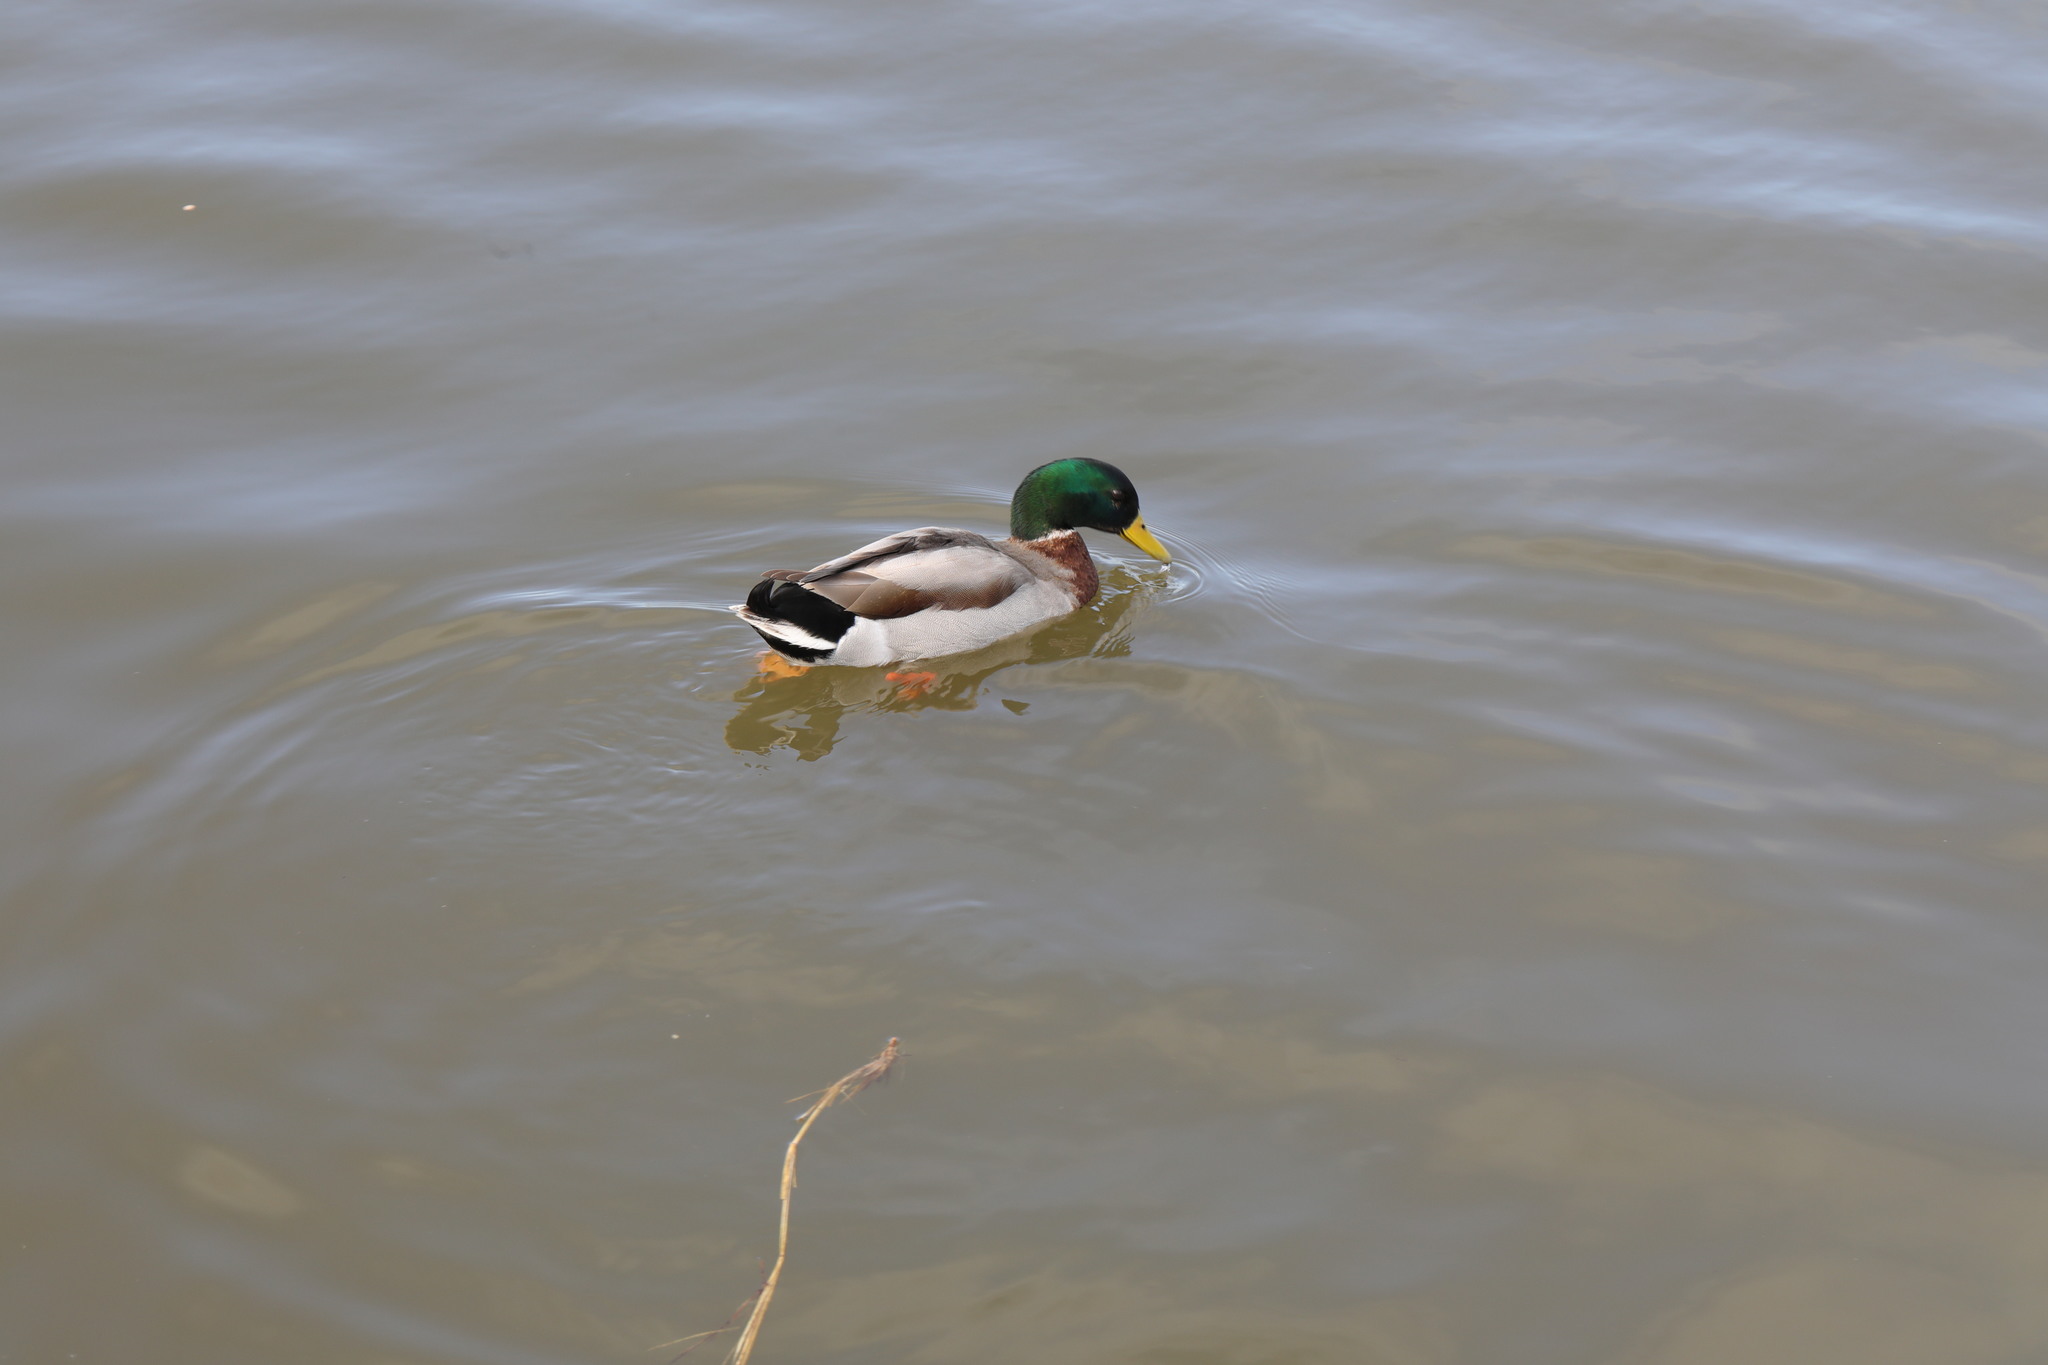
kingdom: Animalia
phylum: Chordata
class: Aves
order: Anseriformes
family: Anatidae
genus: Anas
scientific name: Anas platyrhynchos
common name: Mallard
